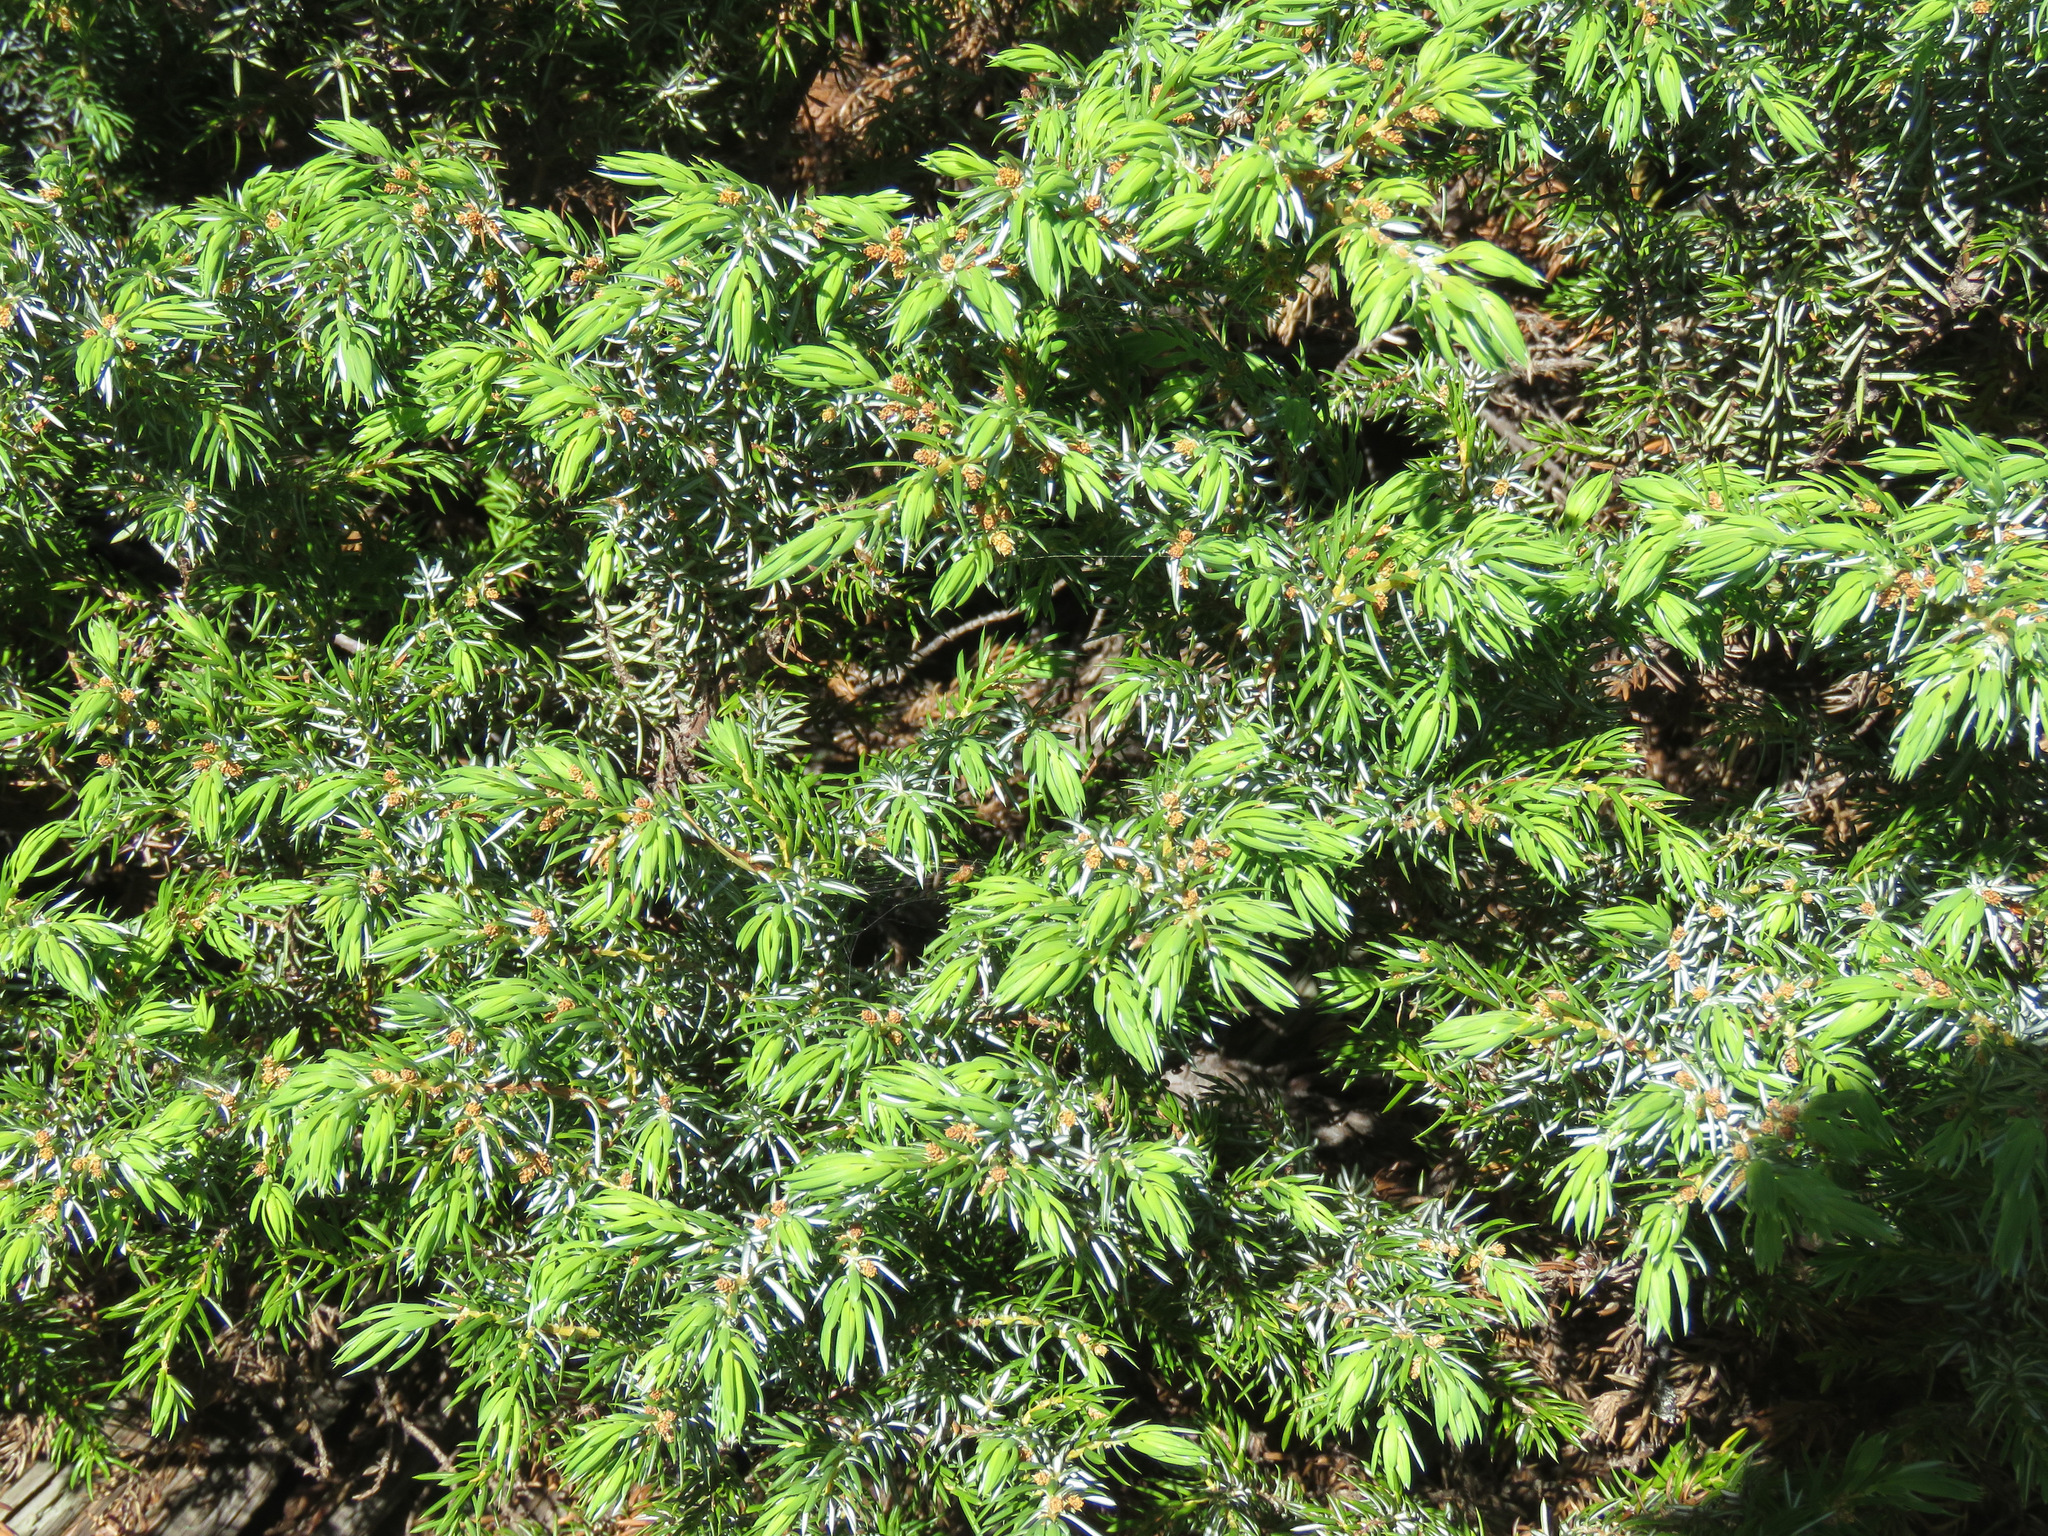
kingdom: Plantae
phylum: Tracheophyta
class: Pinopsida
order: Pinales
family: Cupressaceae
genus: Juniperus
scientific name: Juniperus communis
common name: Common juniper
